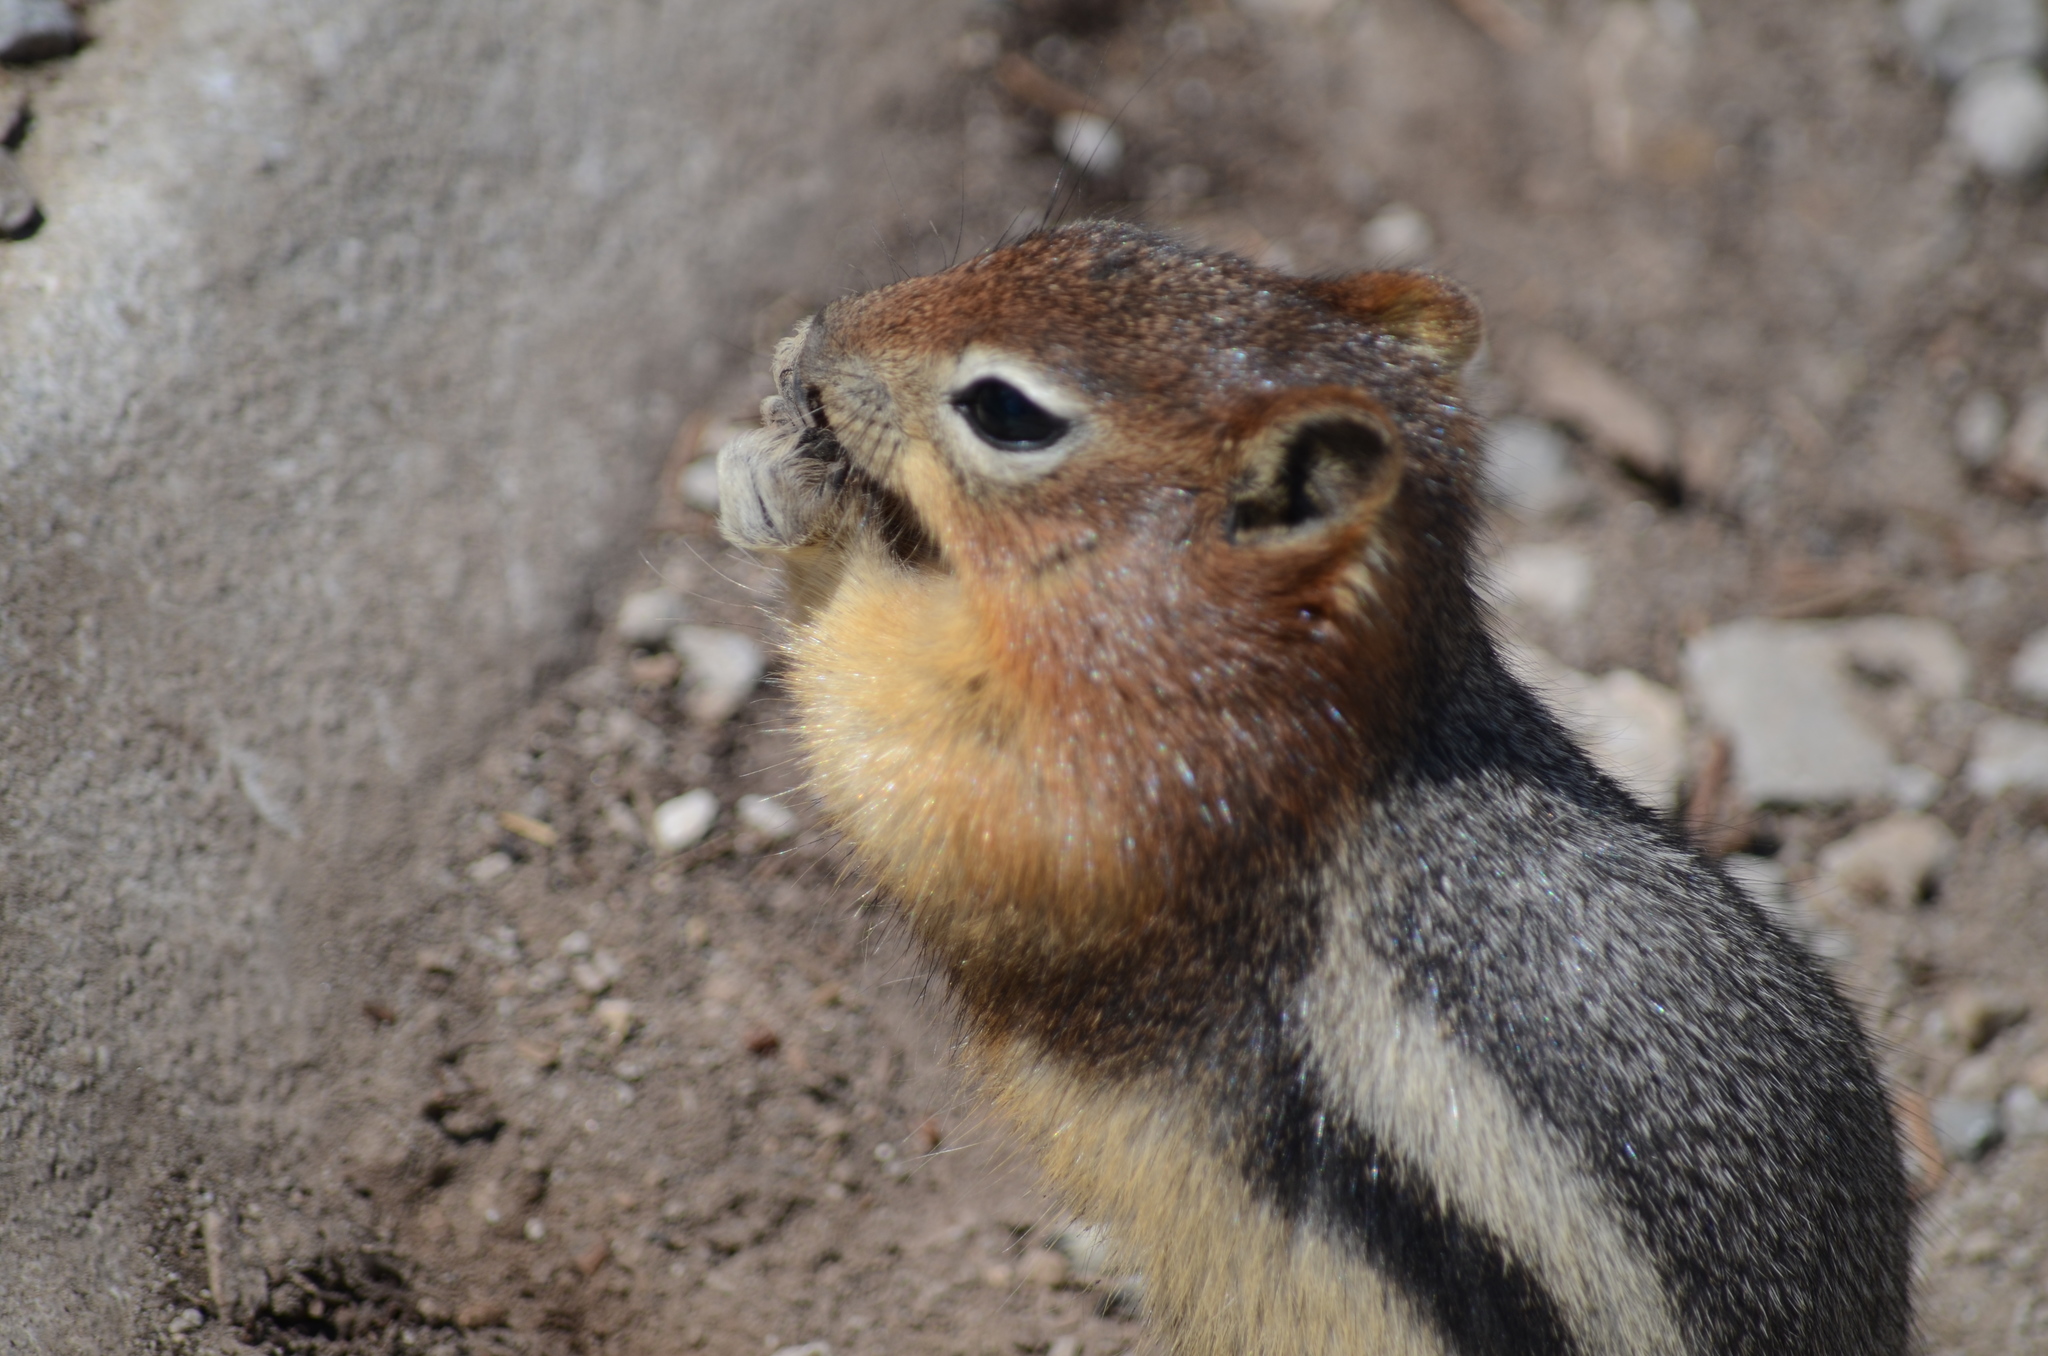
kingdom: Animalia
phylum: Chordata
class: Mammalia
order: Rodentia
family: Sciuridae
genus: Callospermophilus
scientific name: Callospermophilus lateralis
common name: Golden-mantled ground squirrel
